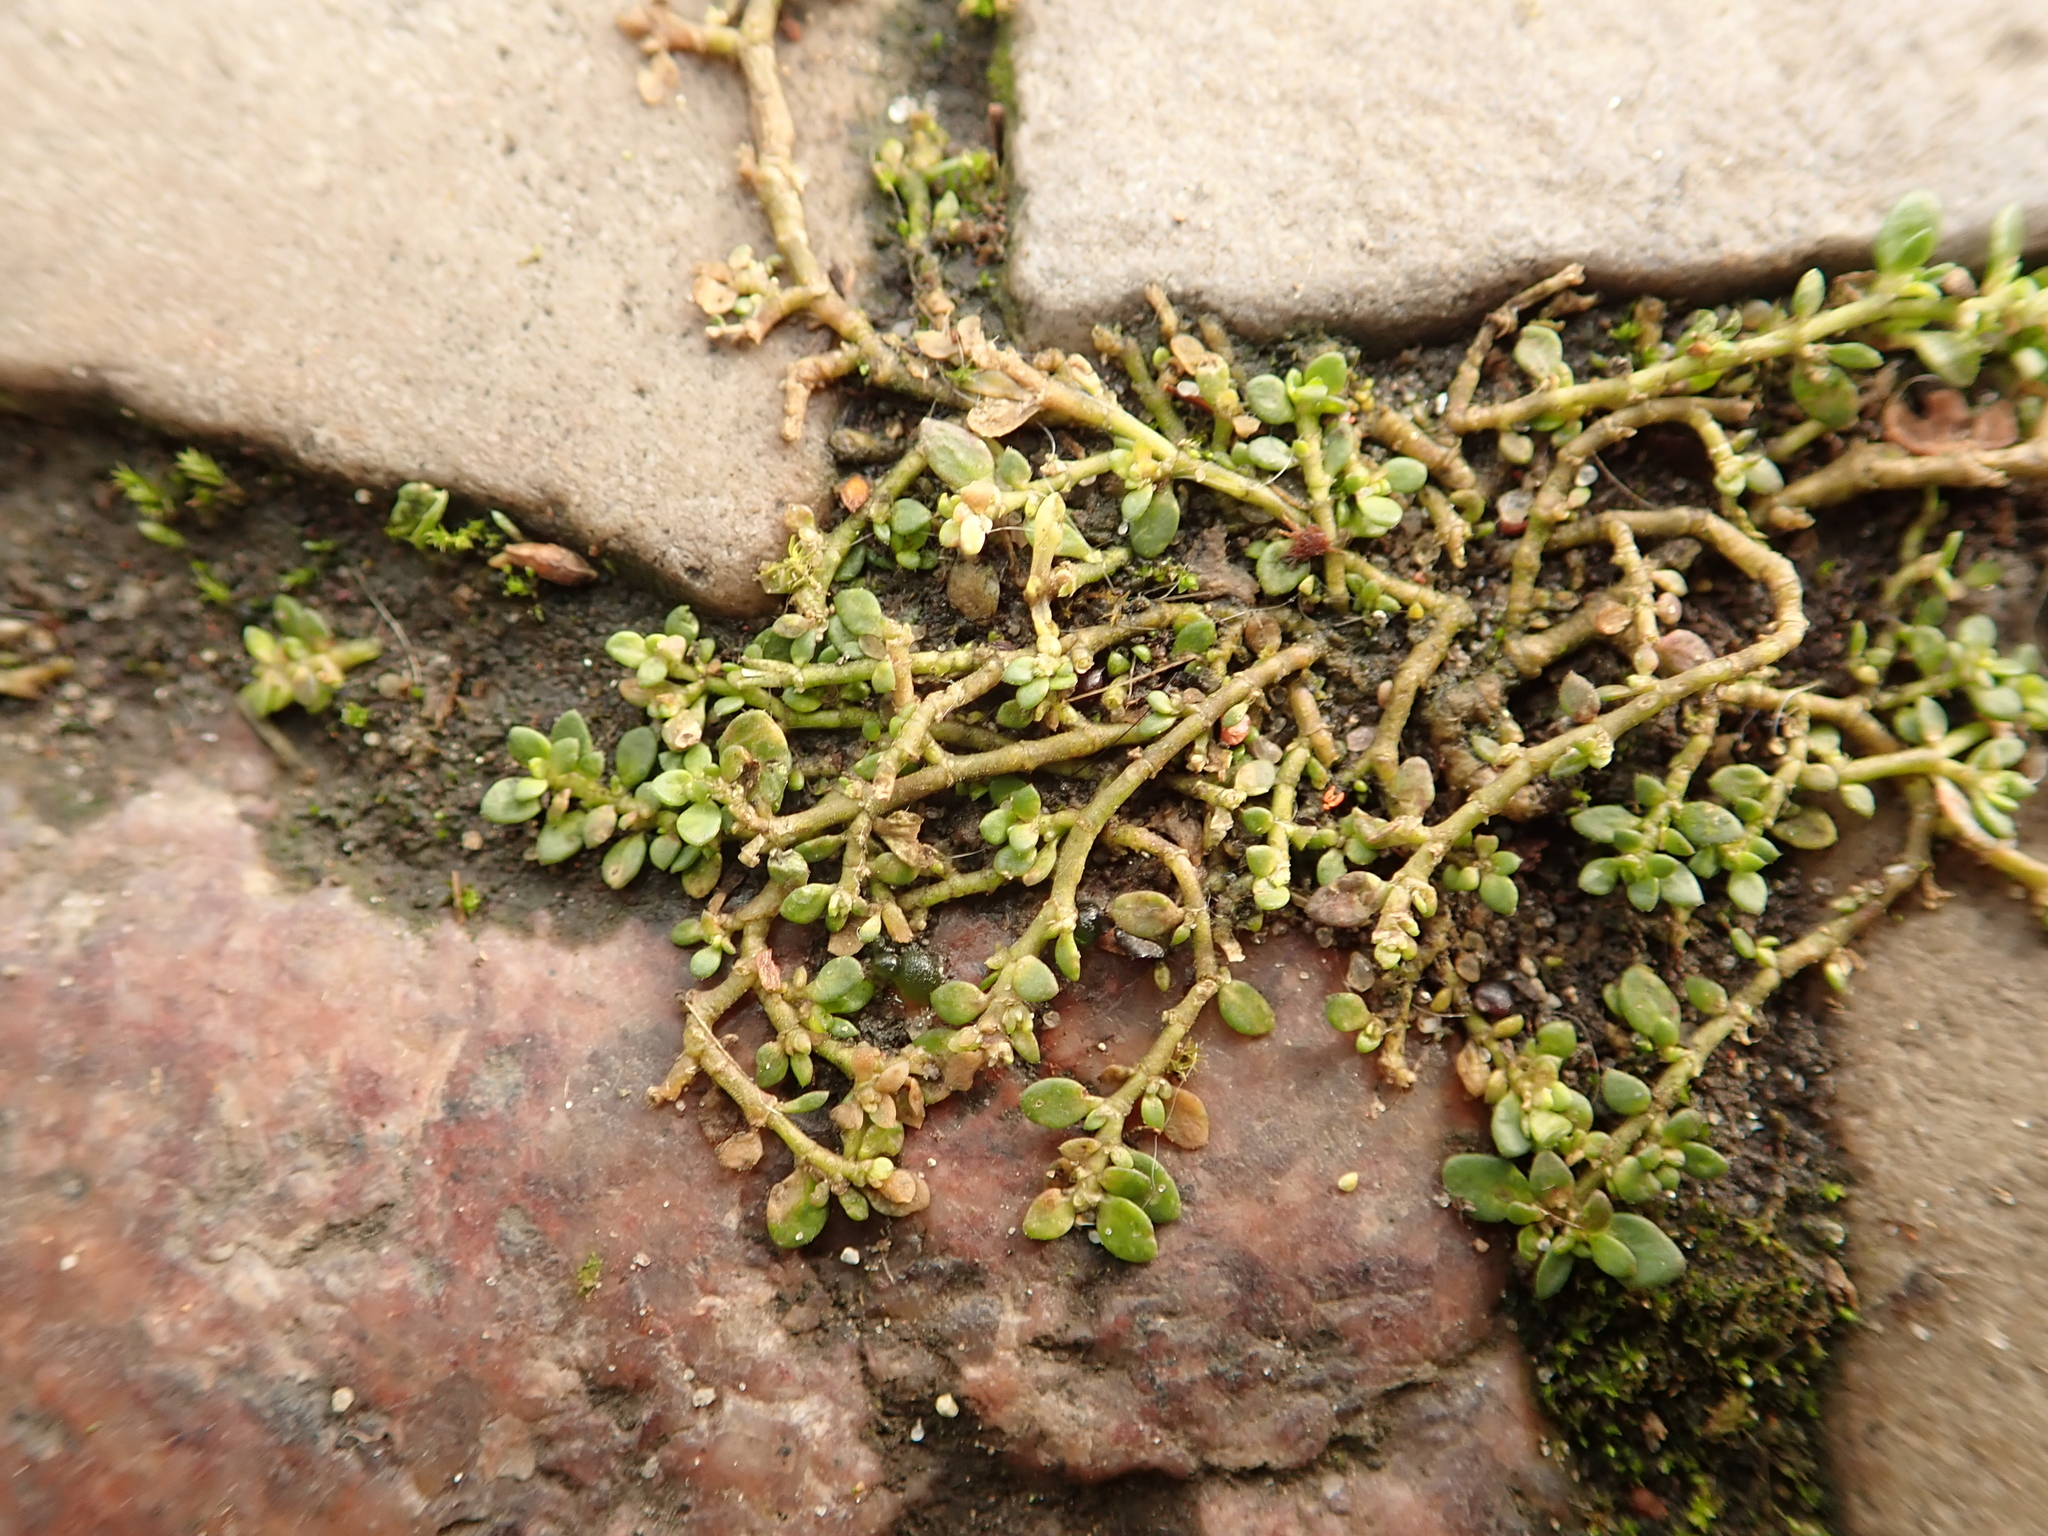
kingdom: Plantae
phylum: Tracheophyta
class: Magnoliopsida
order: Caryophyllales
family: Caryophyllaceae
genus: Herniaria
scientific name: Herniaria glabra
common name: Smooth rupturewort
